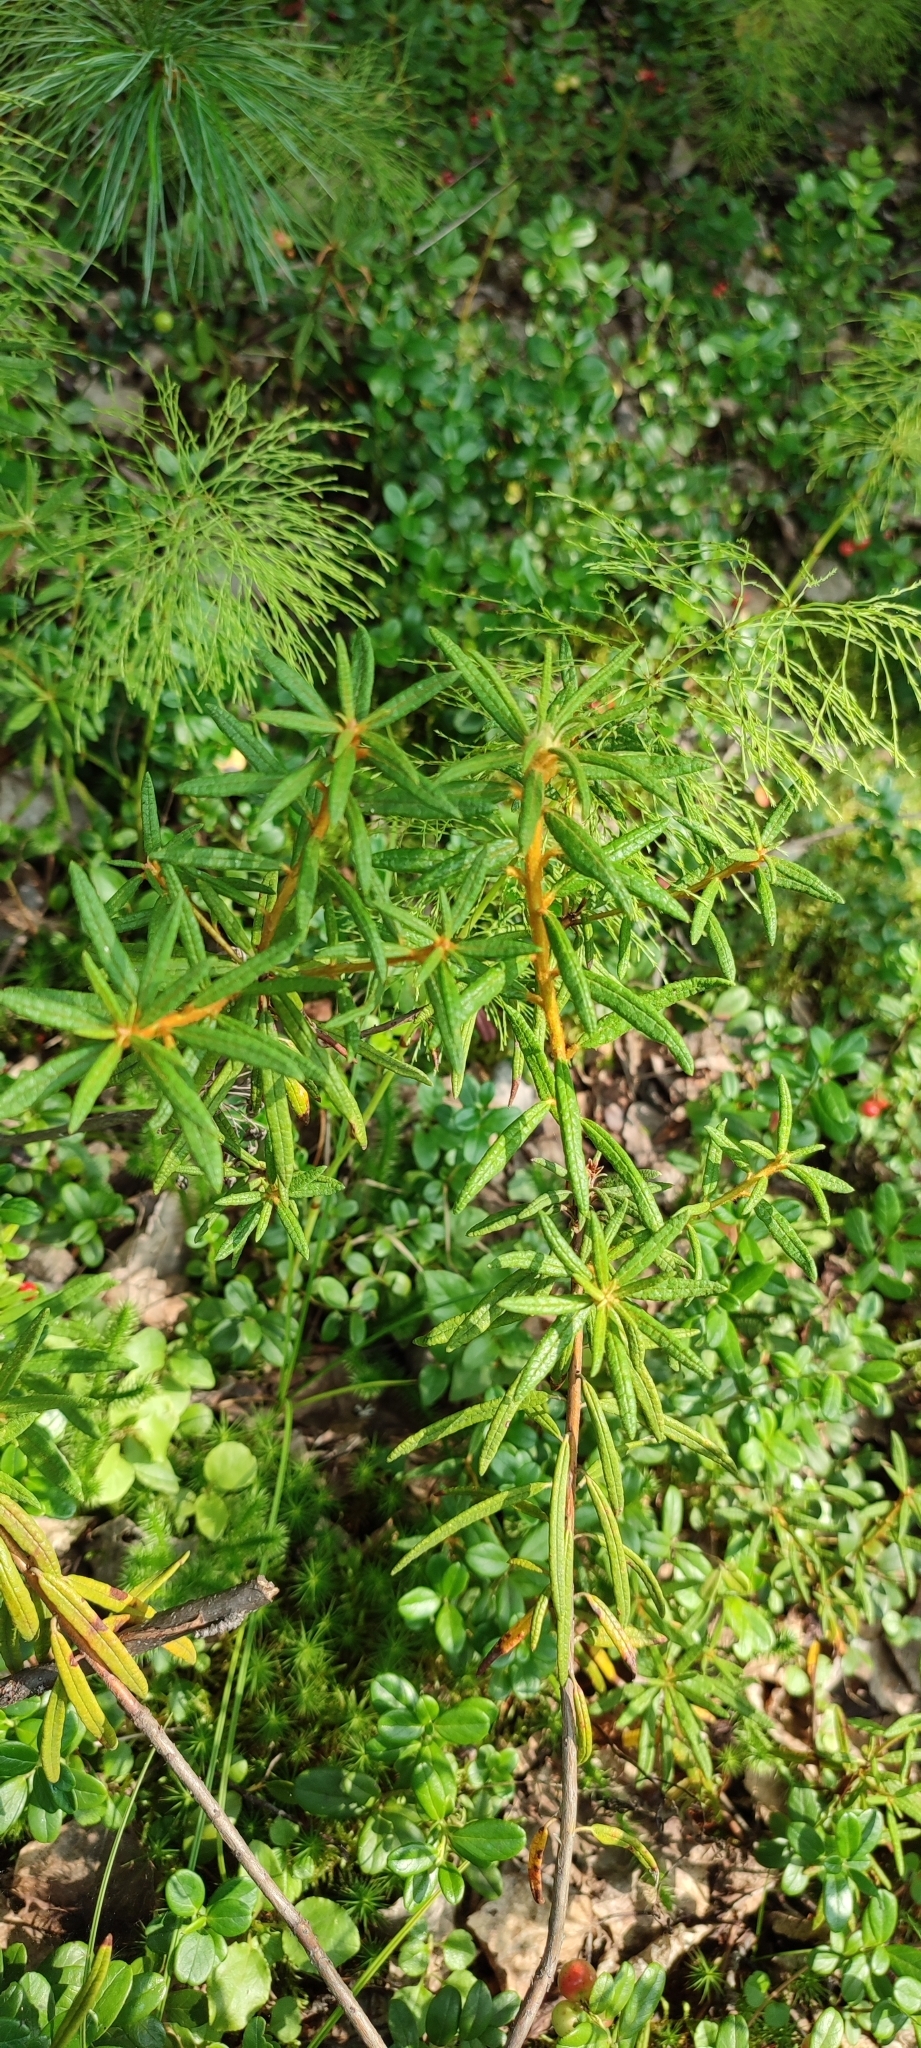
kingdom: Plantae
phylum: Tracheophyta
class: Magnoliopsida
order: Ericales
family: Ericaceae
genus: Rhododendron
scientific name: Rhododendron tomentosum
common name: Marsh labrador tea
